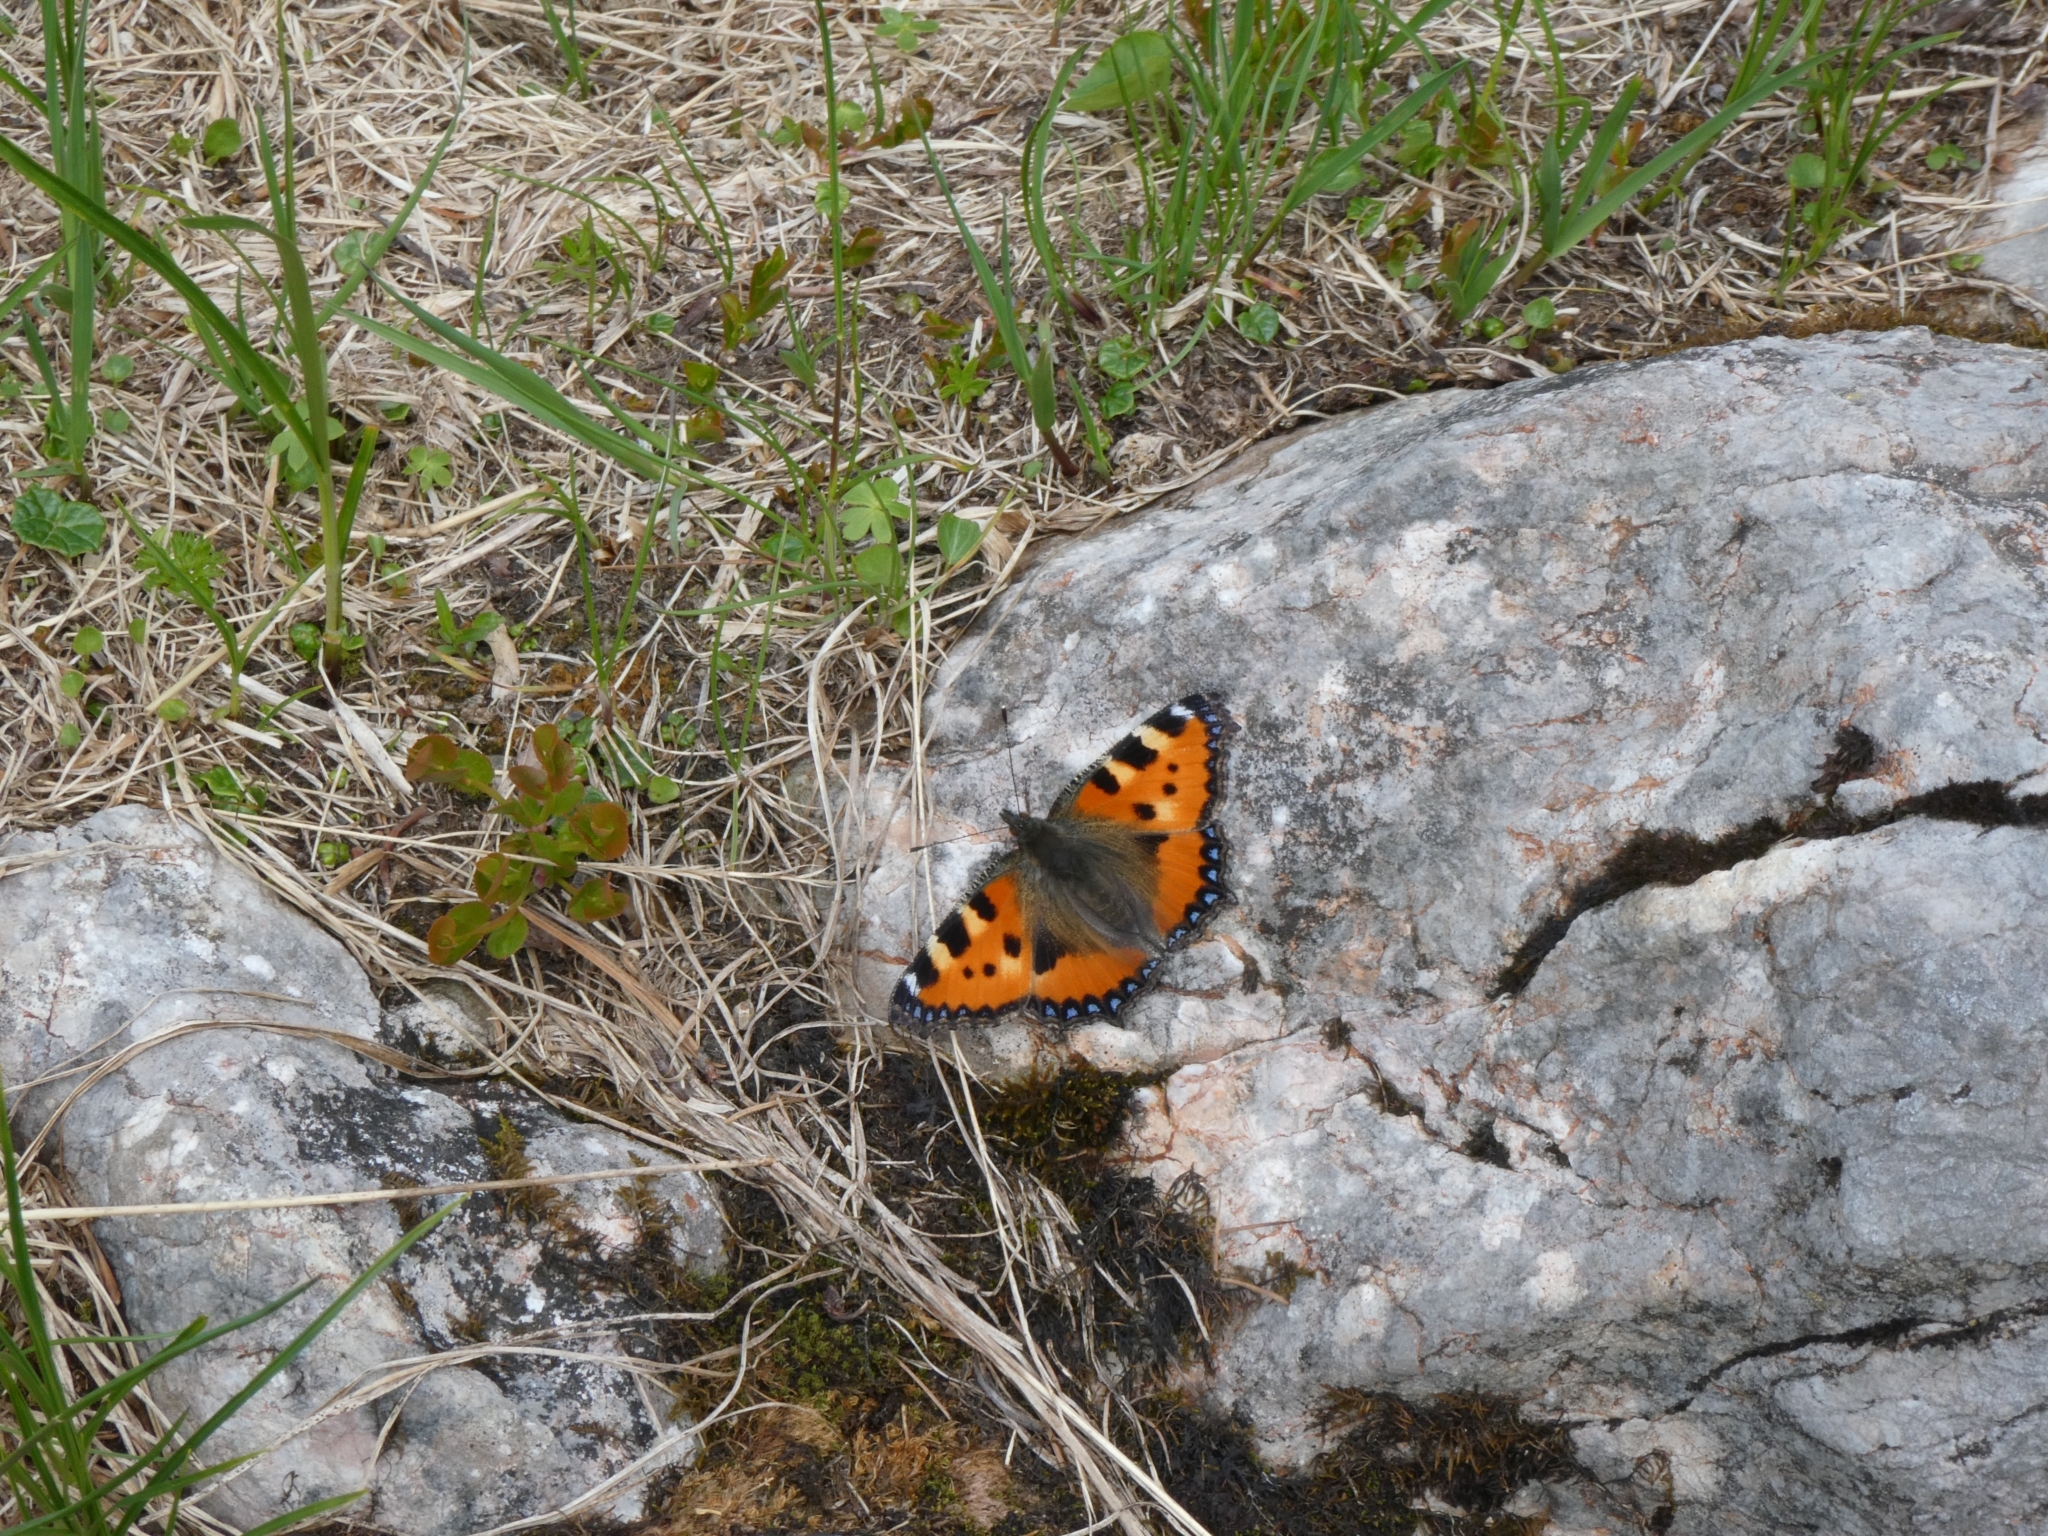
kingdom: Animalia
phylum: Arthropoda
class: Insecta
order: Lepidoptera
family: Nymphalidae
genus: Aglais
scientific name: Aglais urticae
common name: Small tortoiseshell
